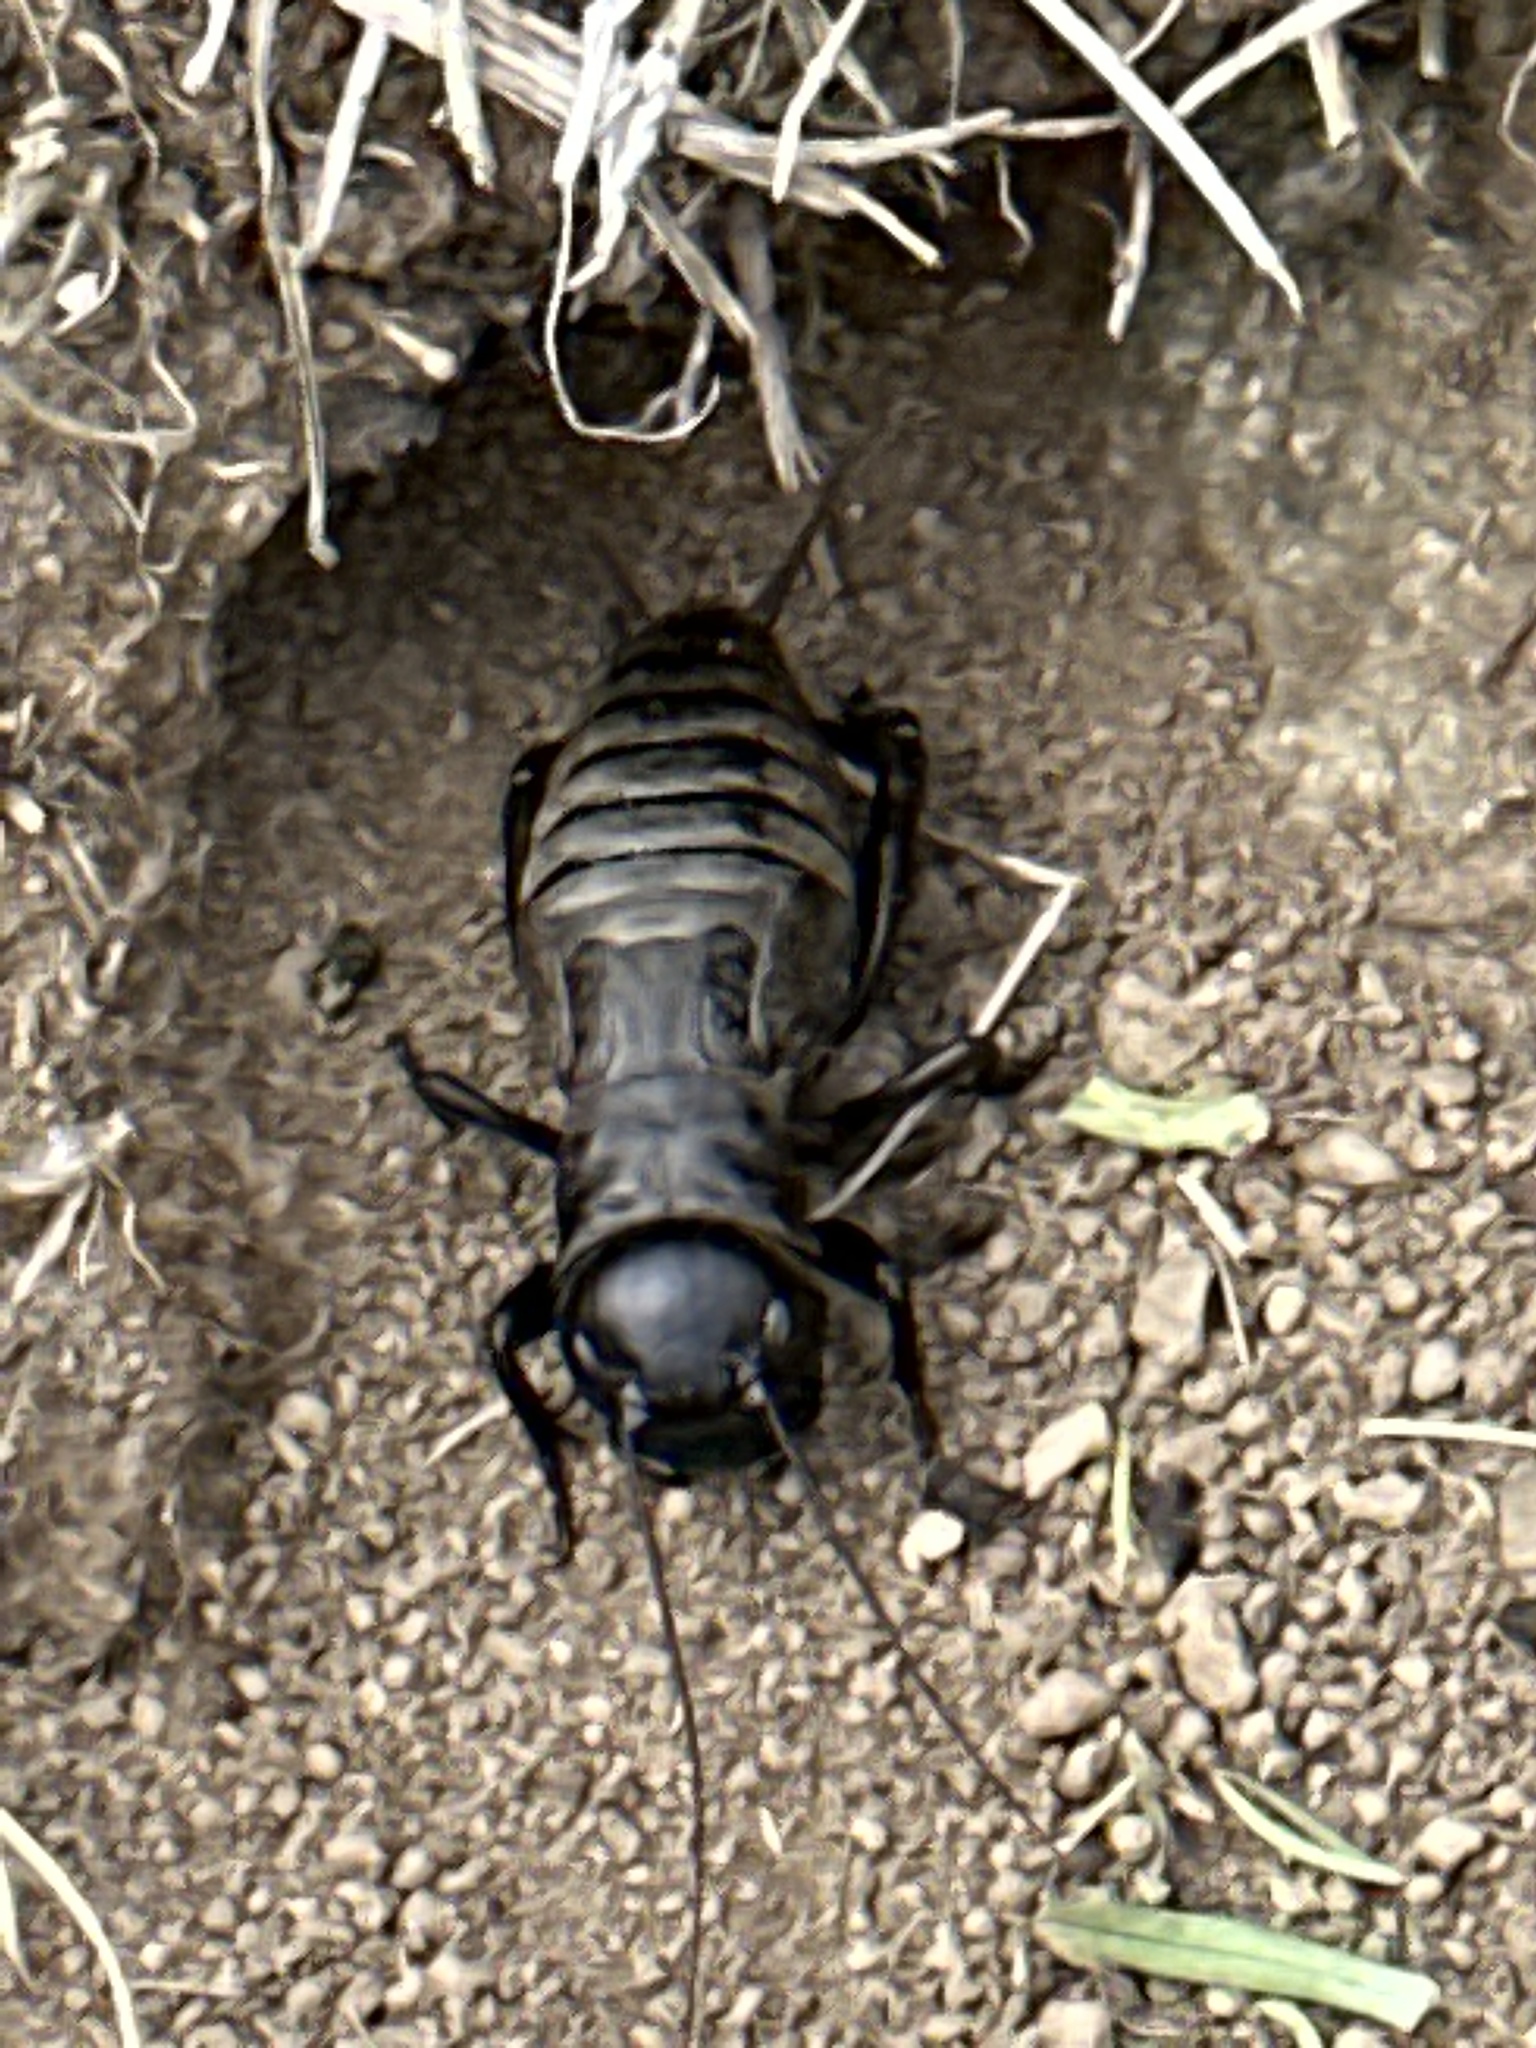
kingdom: Animalia
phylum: Arthropoda
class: Insecta
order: Orthoptera
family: Gryllidae
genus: Gryllus
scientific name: Gryllus campestris
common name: Field cricket
